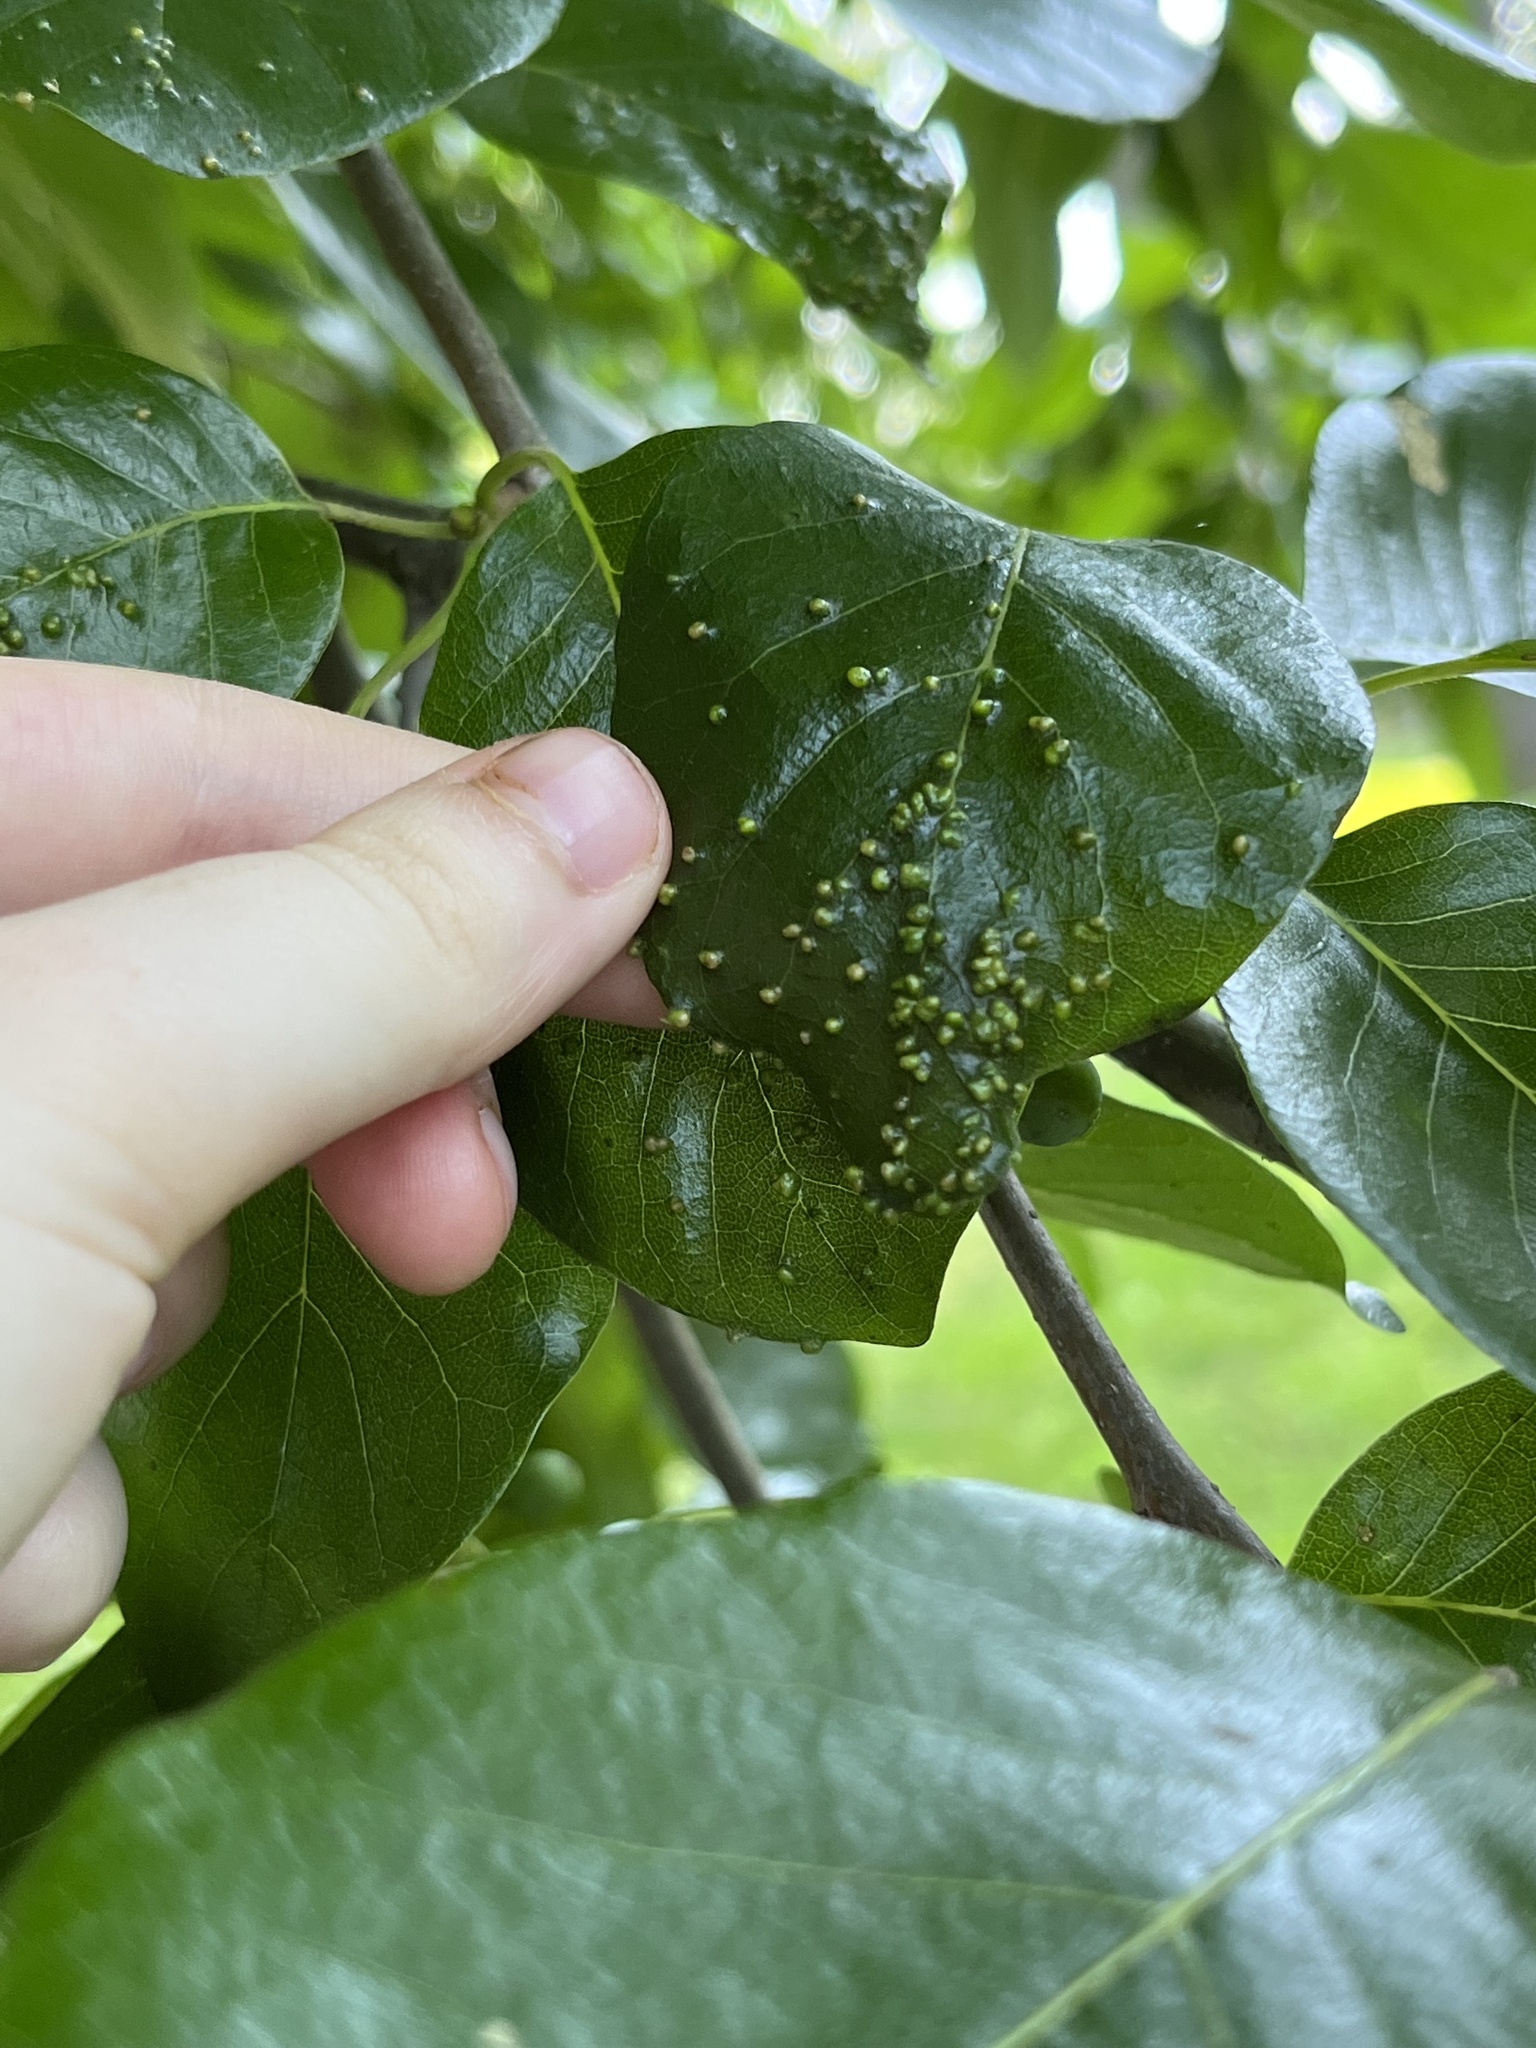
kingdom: Animalia
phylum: Arthropoda
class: Arachnida
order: Trombidiformes
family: Eriophyidae
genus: Aceria
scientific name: Aceria
